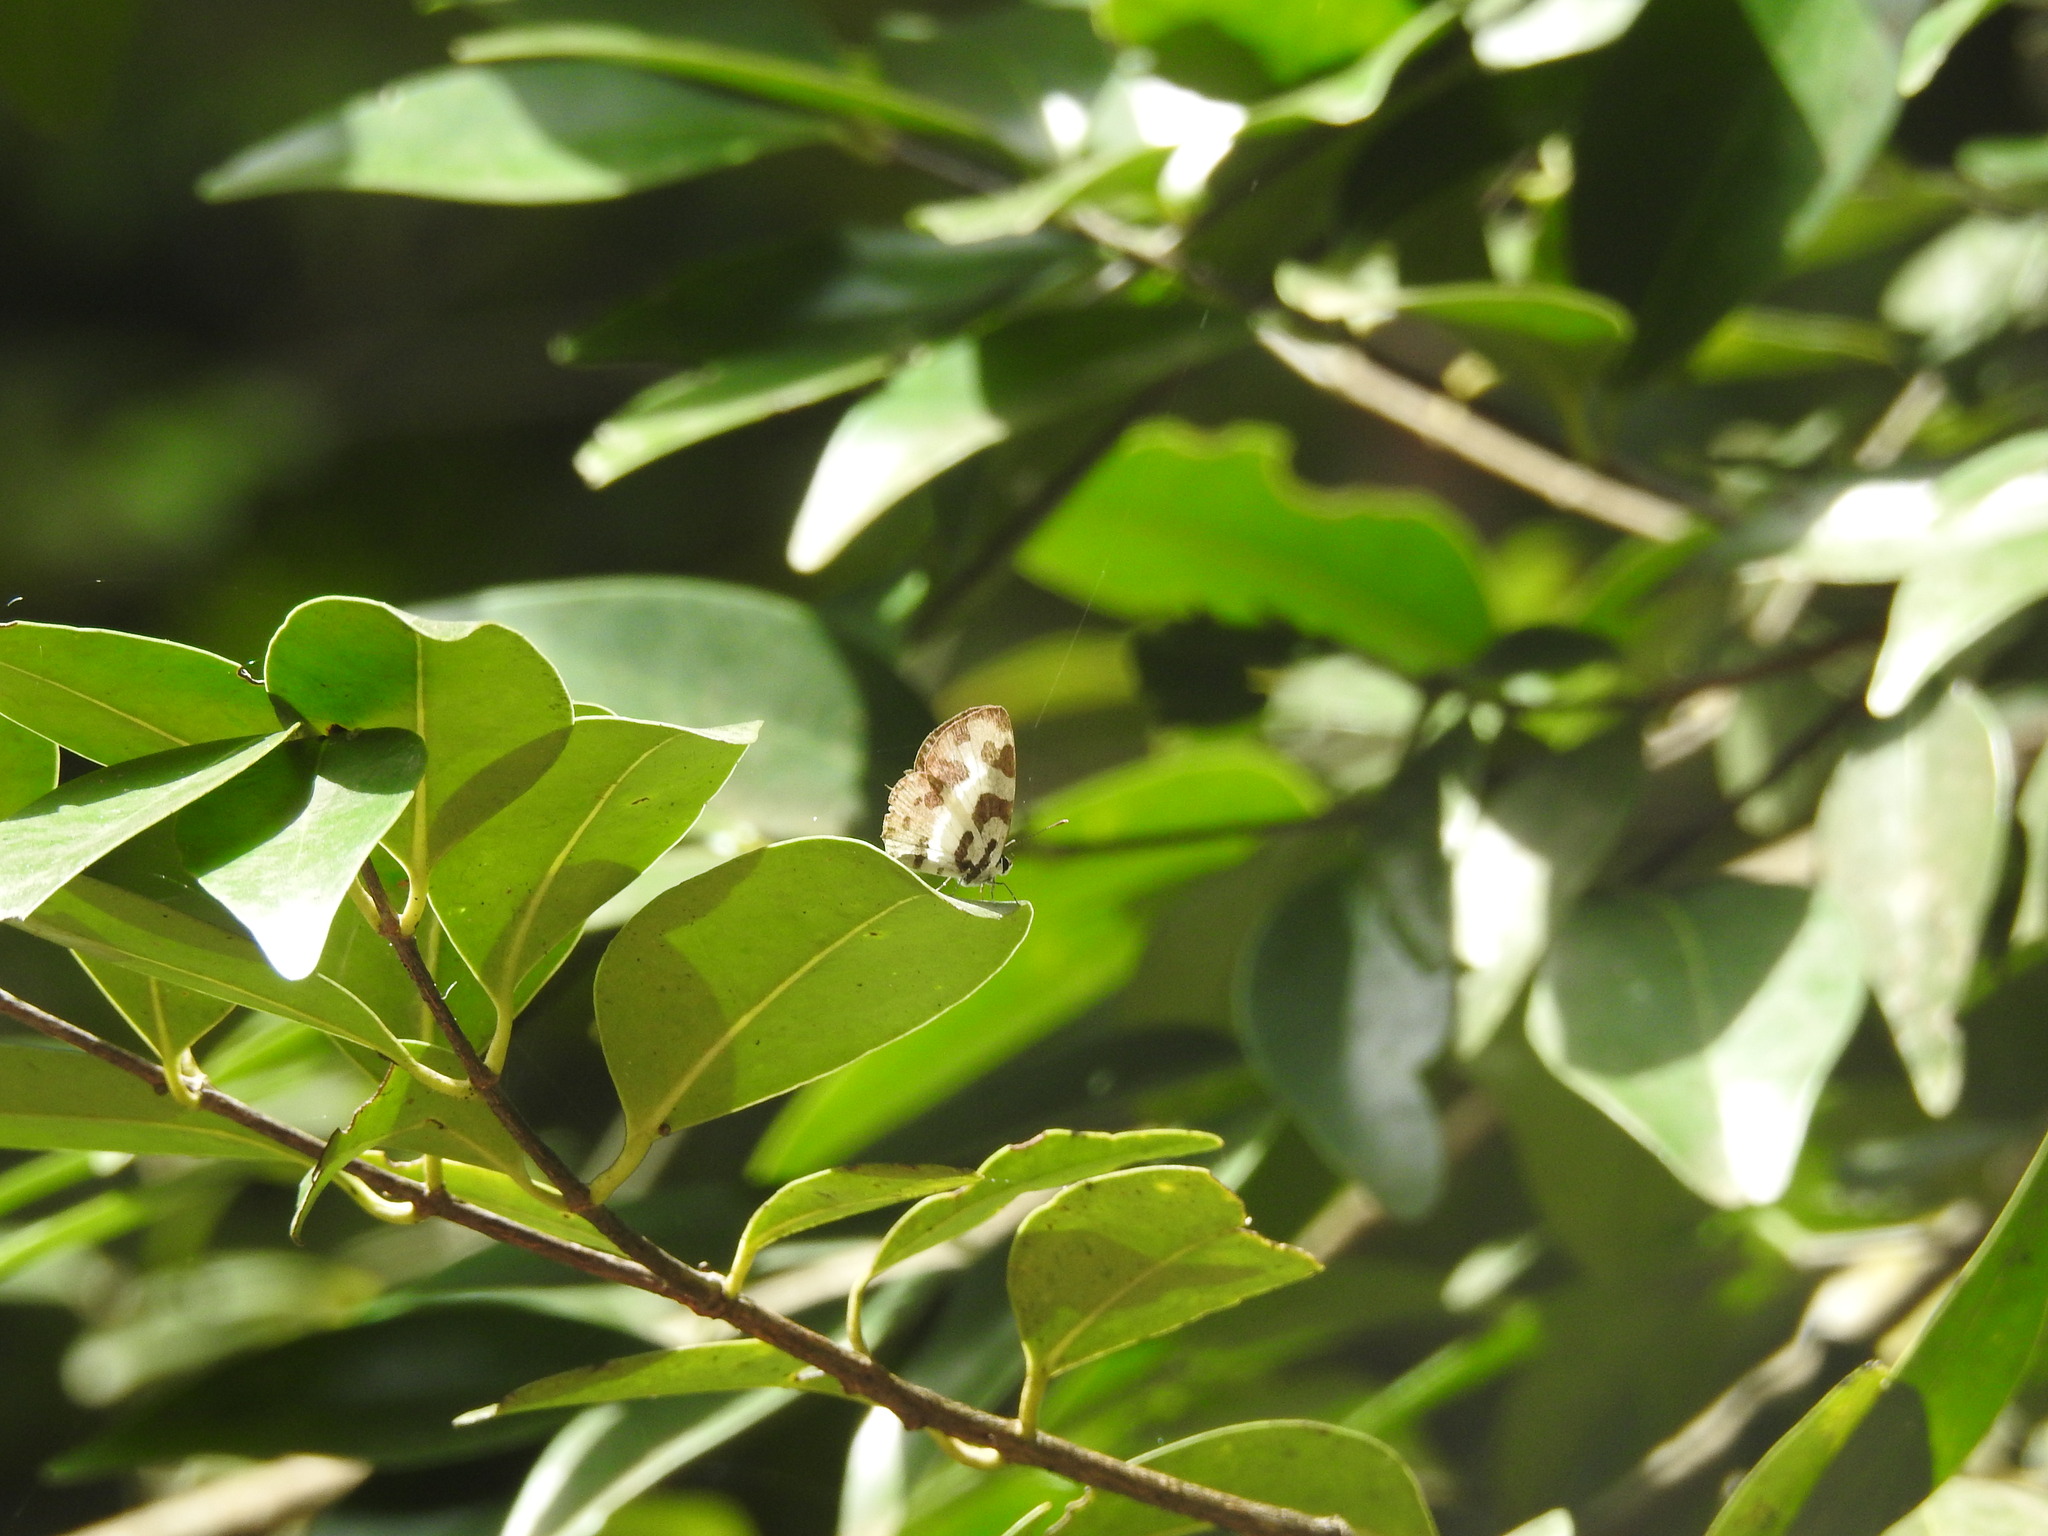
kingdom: Animalia
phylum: Arthropoda
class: Insecta
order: Lepidoptera
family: Lycaenidae
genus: Caleta
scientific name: Caleta decidia
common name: Angled pierrot
